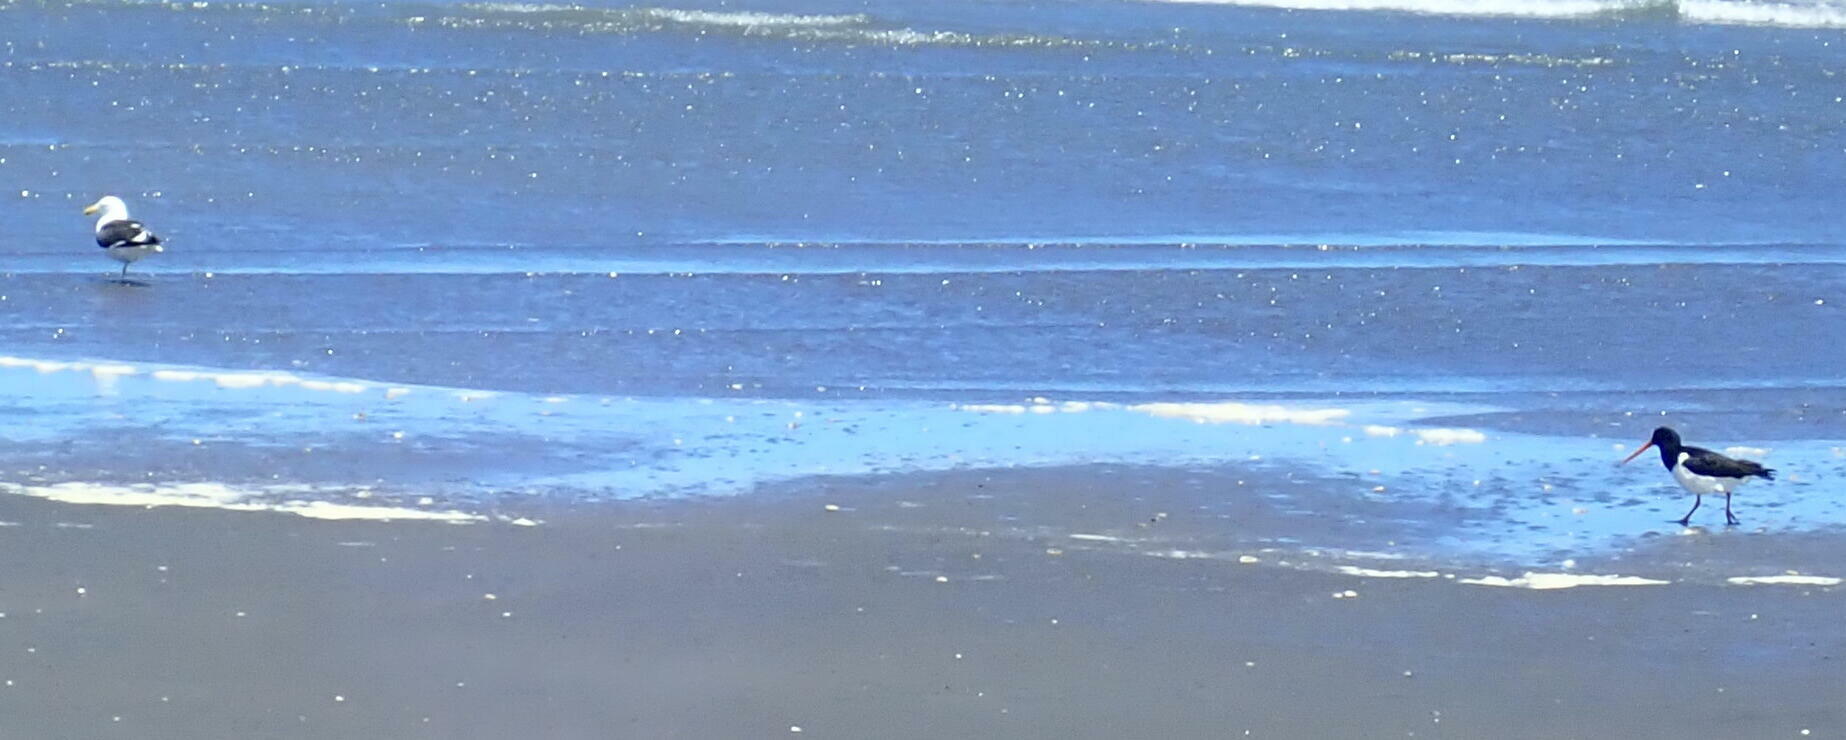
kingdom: Animalia
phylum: Chordata
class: Aves
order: Charadriiformes
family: Haematopodidae
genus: Haematopus
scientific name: Haematopus finschi
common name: South island oystercatcher
